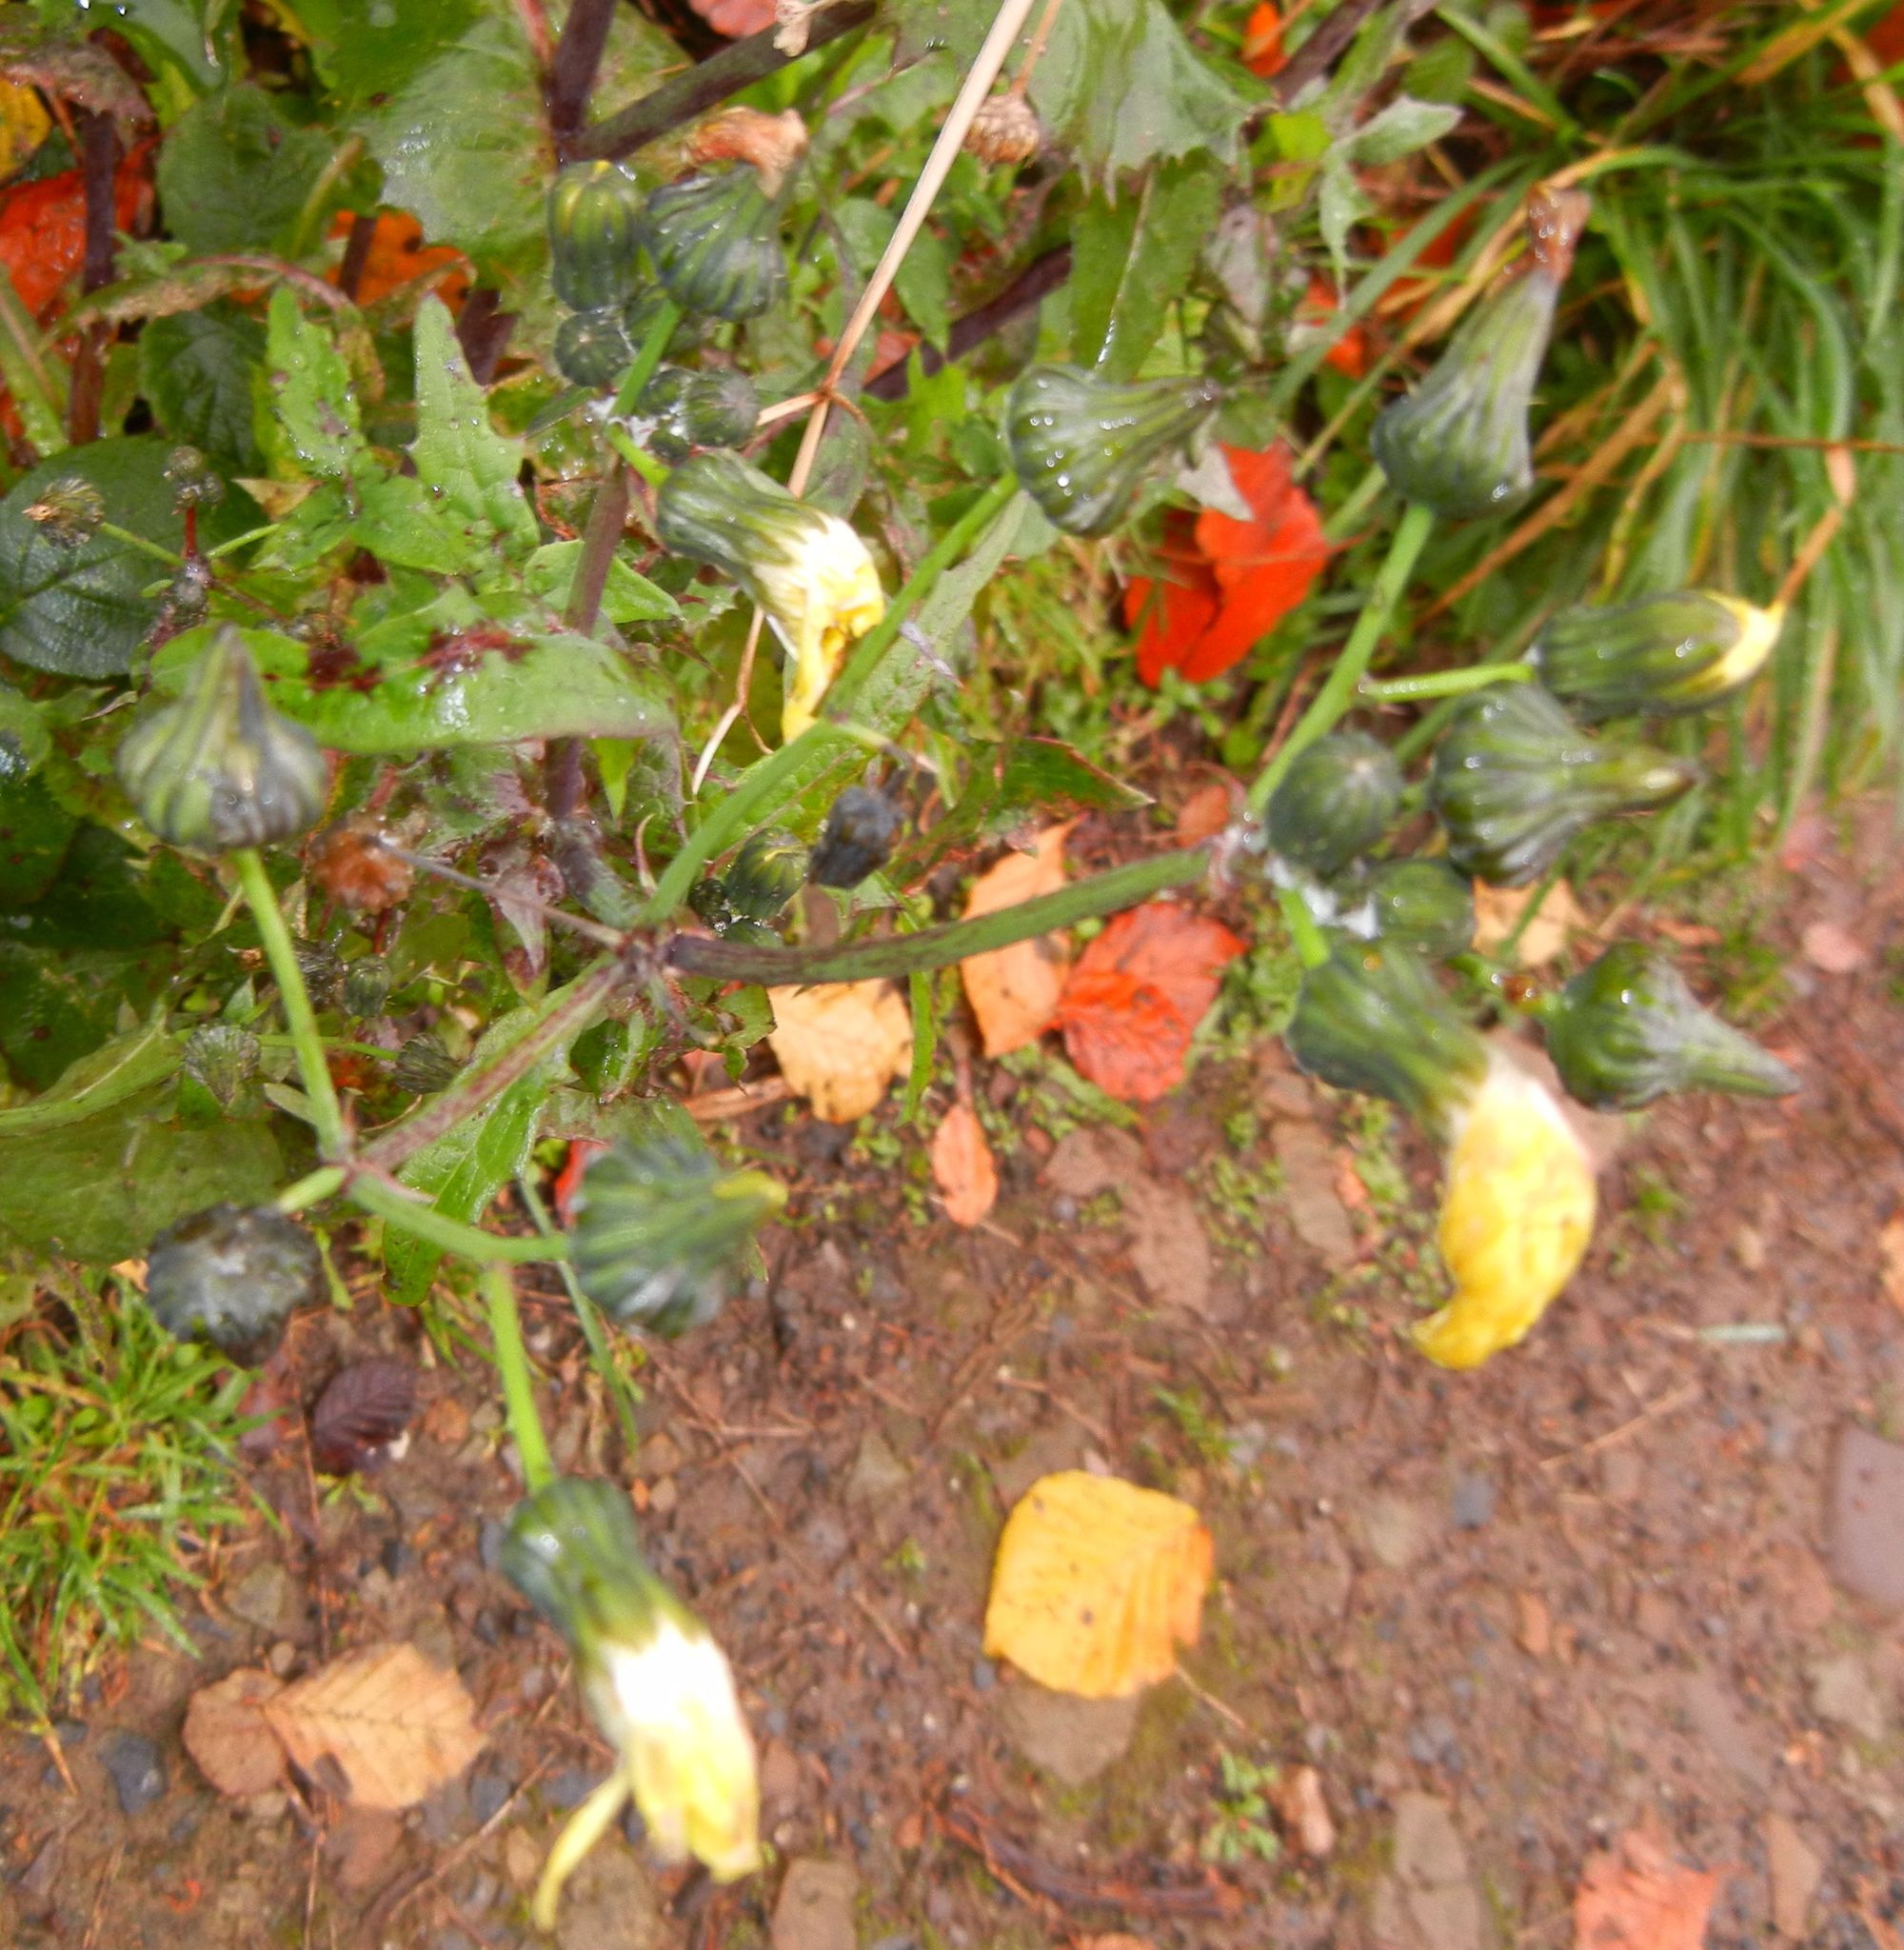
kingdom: Plantae
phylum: Tracheophyta
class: Magnoliopsida
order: Asterales
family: Asteraceae
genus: Sonchus
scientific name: Sonchus oleraceus
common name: Common sowthistle
